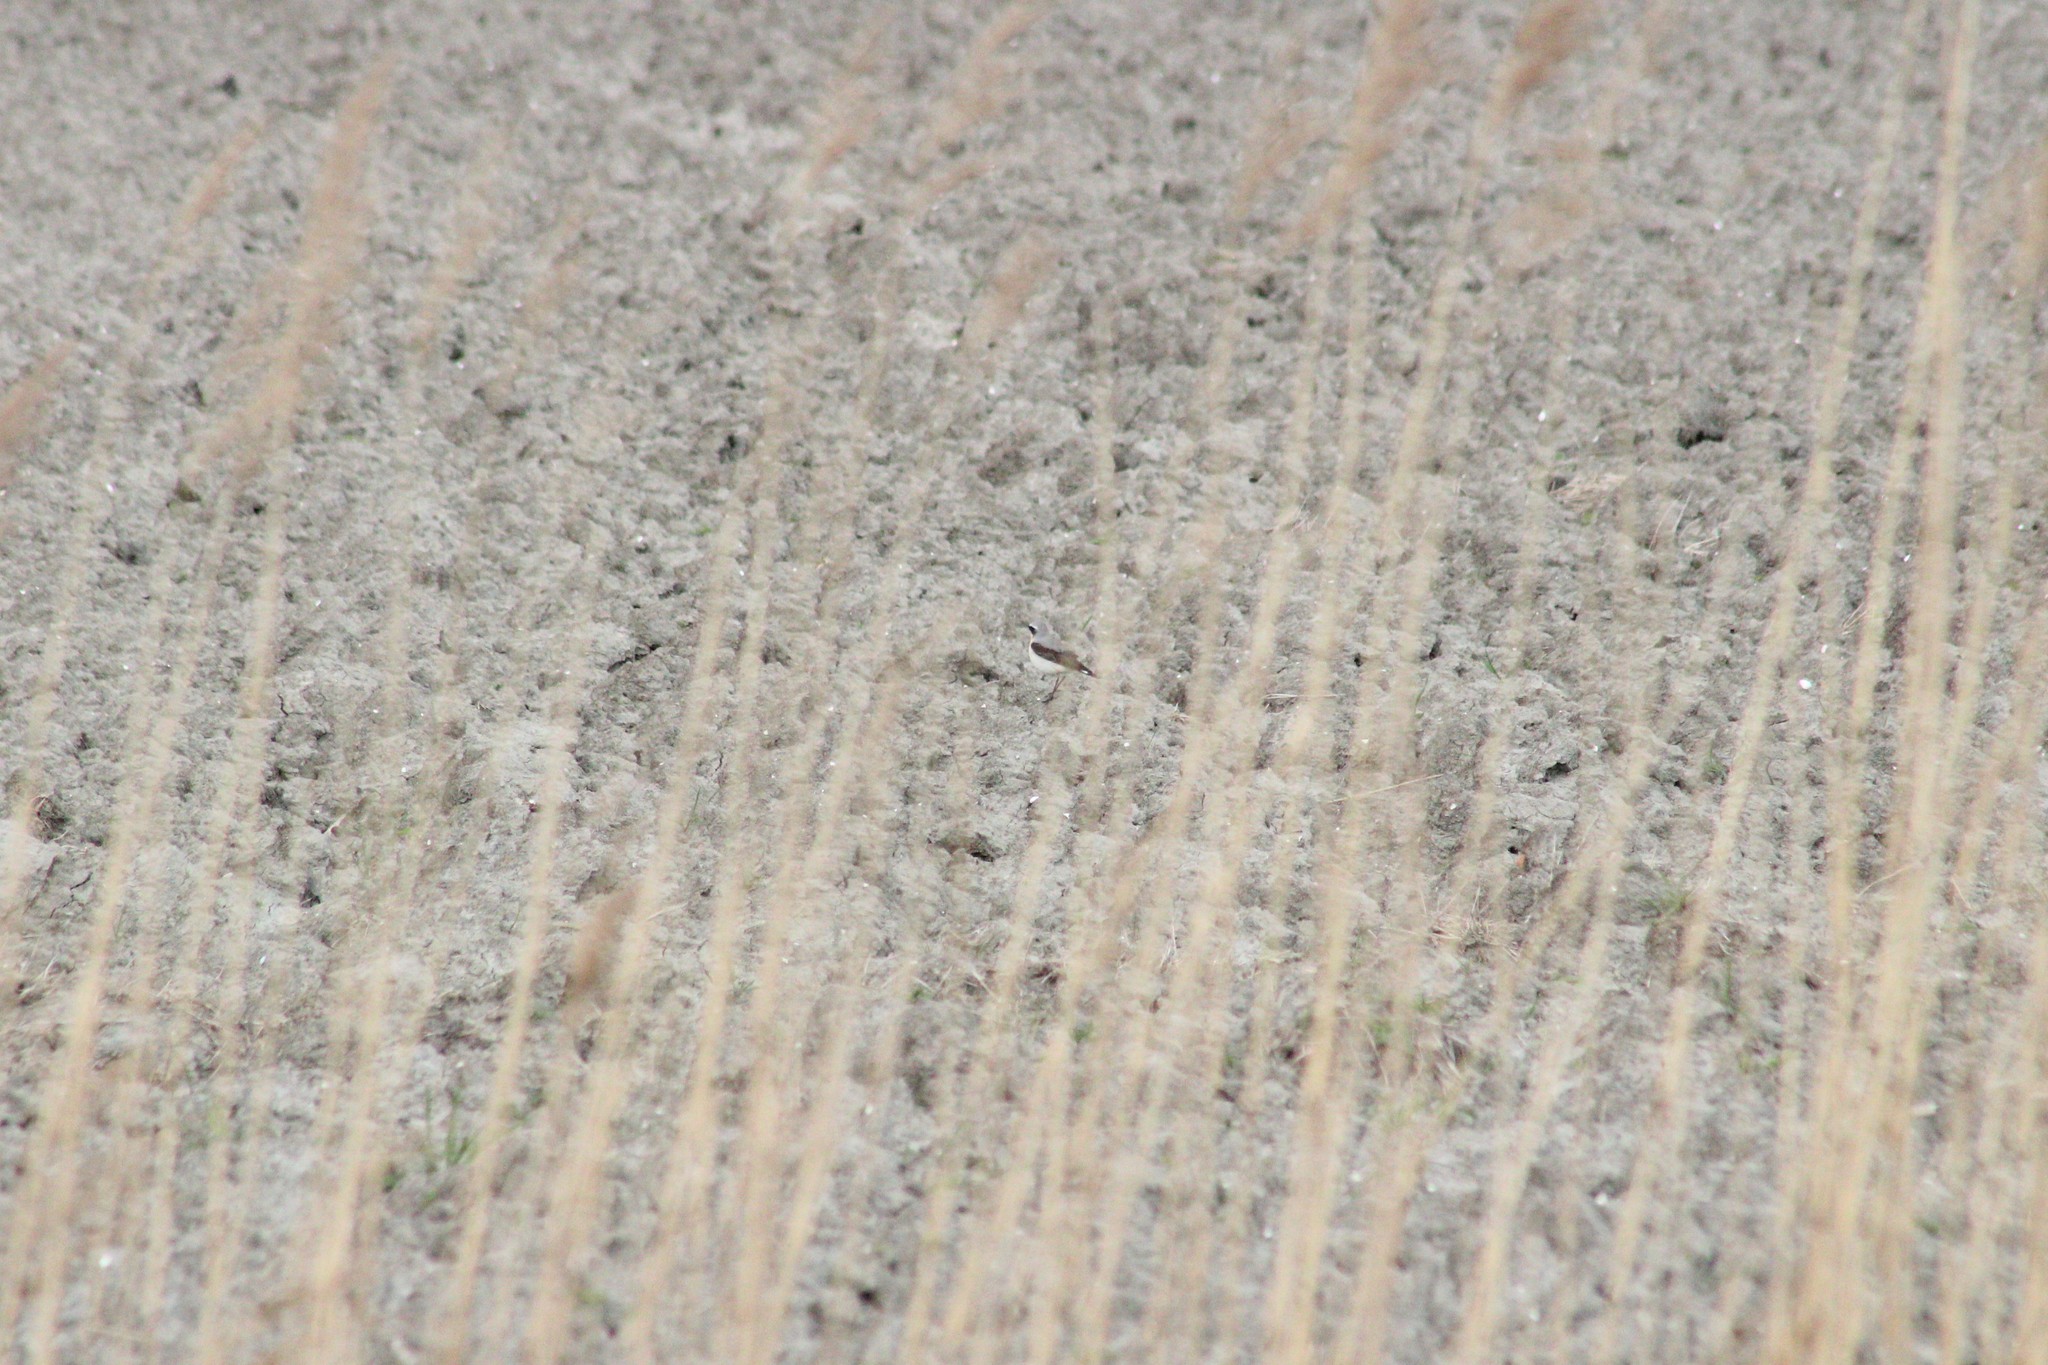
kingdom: Animalia
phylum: Chordata
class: Aves
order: Passeriformes
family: Muscicapidae
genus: Oenanthe
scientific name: Oenanthe oenanthe
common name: Northern wheatear
